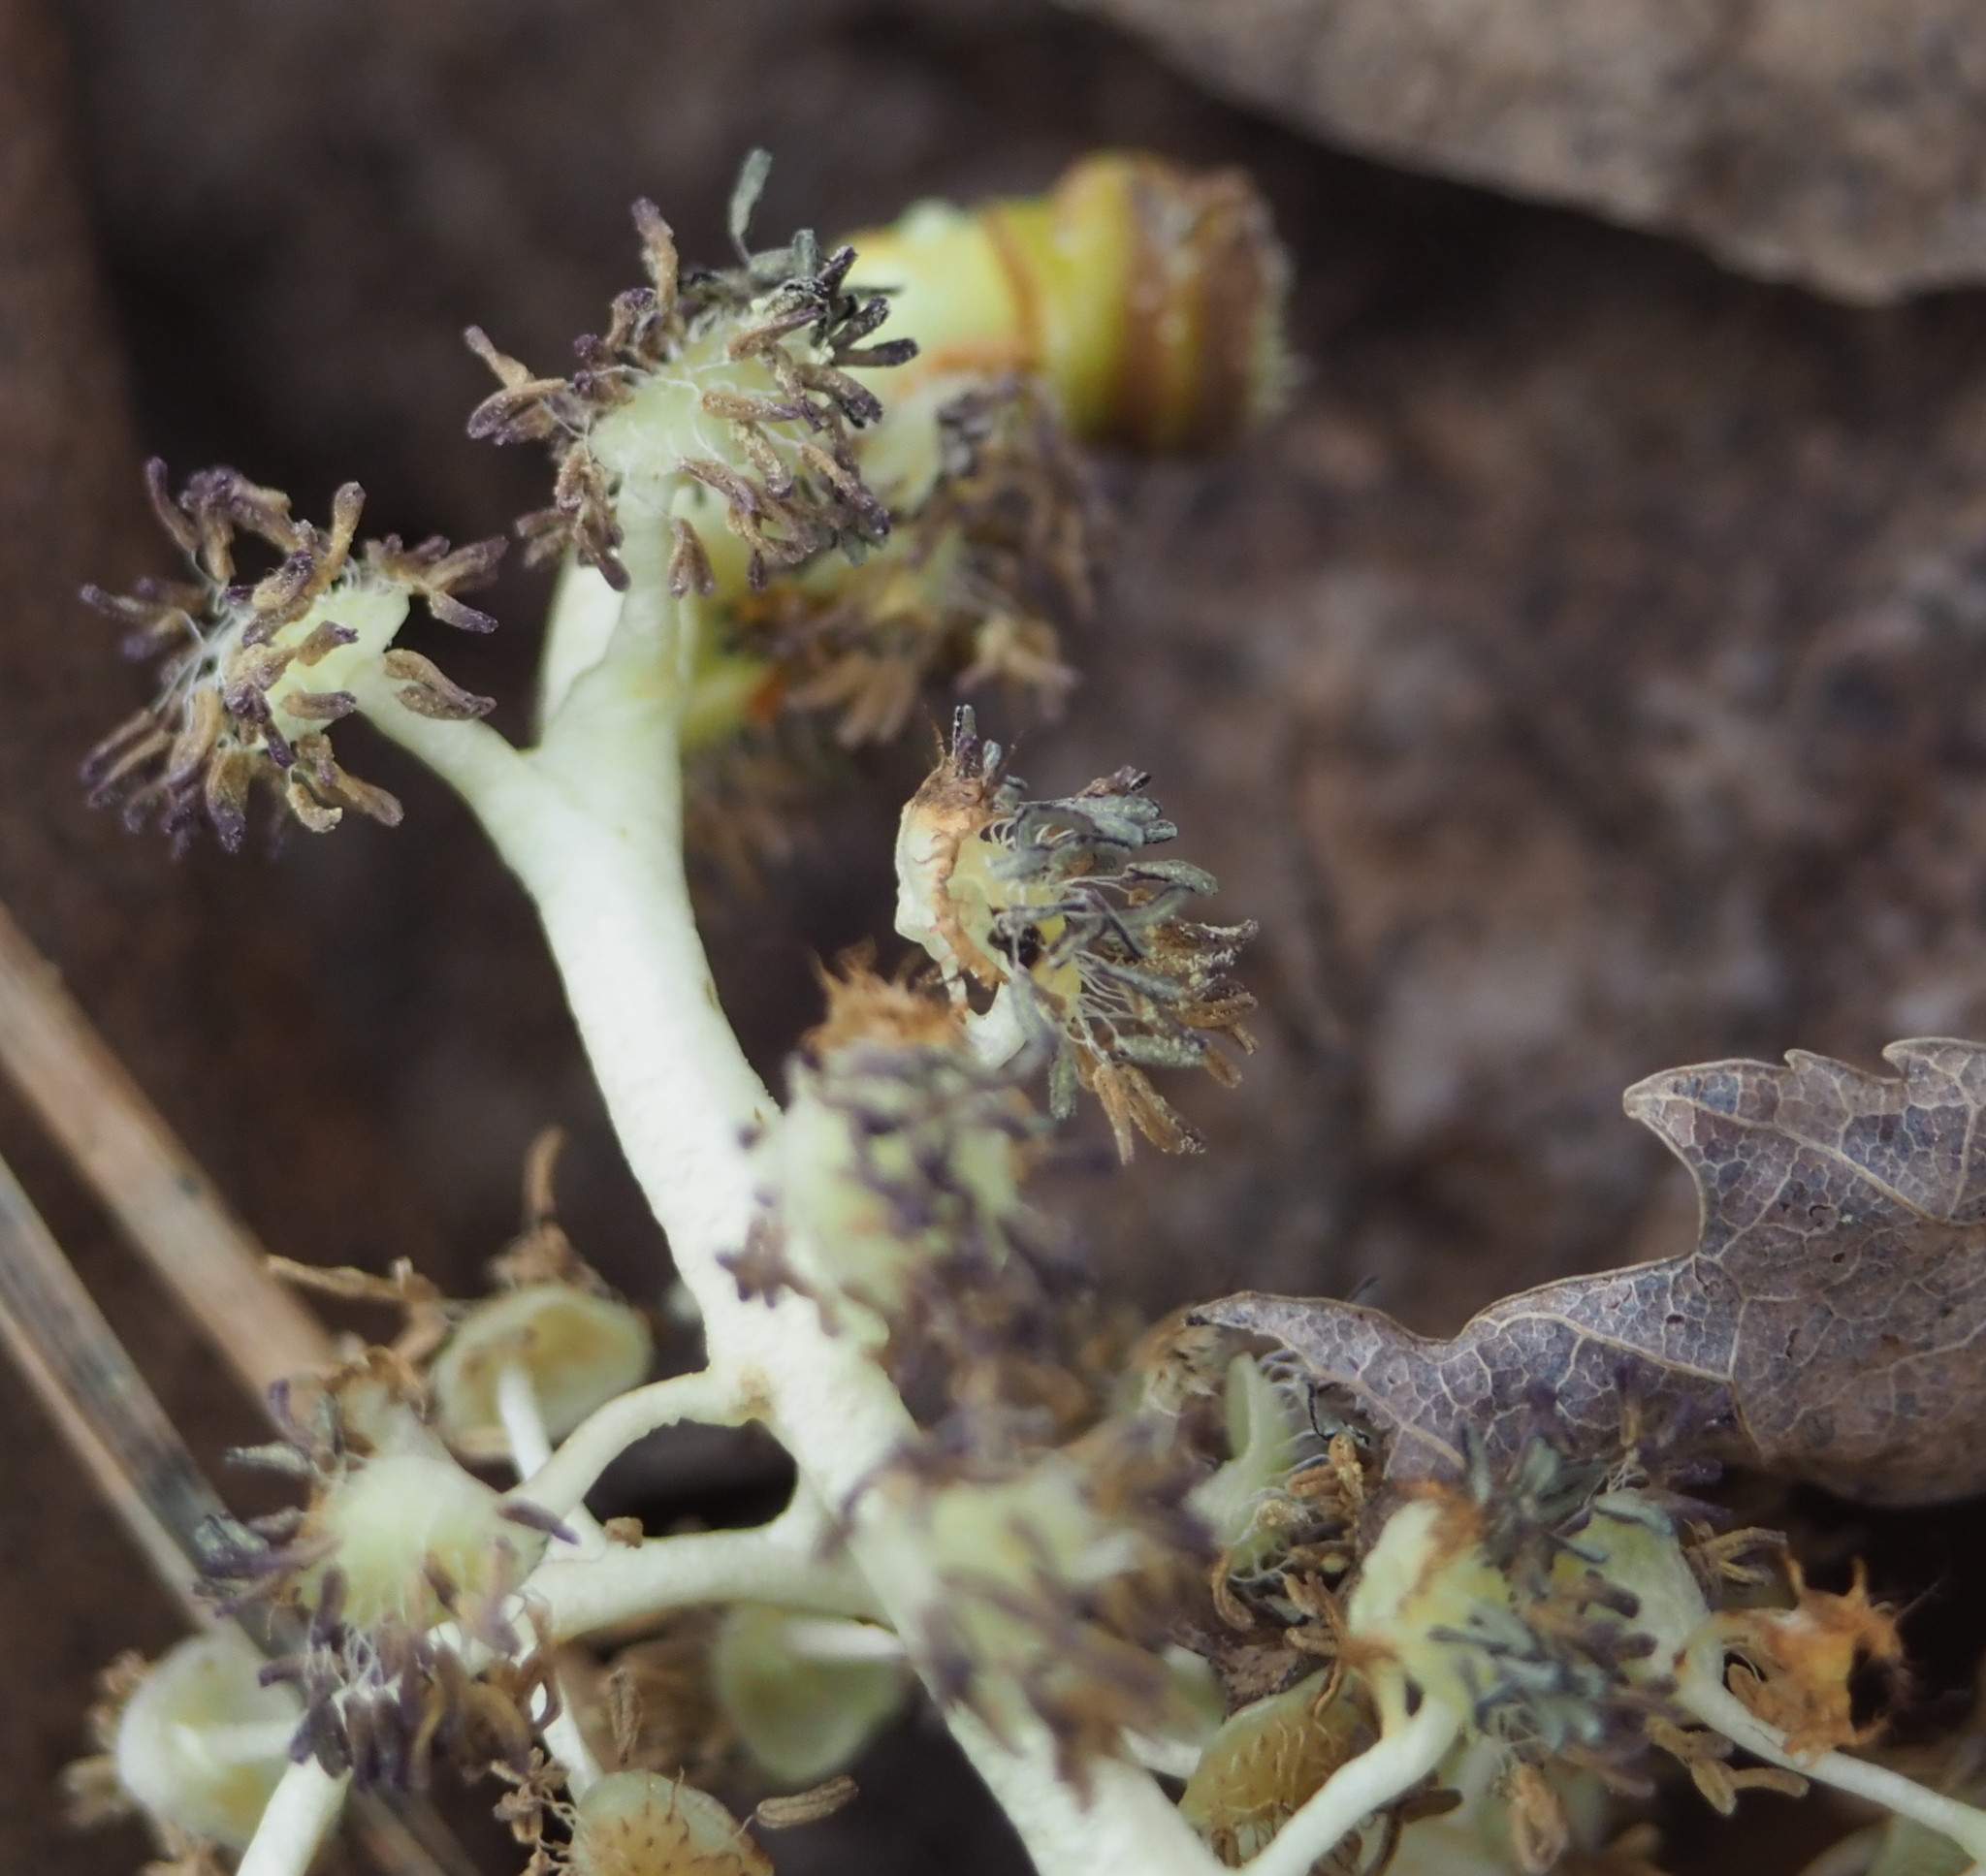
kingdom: Plantae
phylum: Tracheophyta
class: Magnoliopsida
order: Malpighiales
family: Salicaceae
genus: Populus
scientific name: Populus deltoides
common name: Eastern cottonwood
